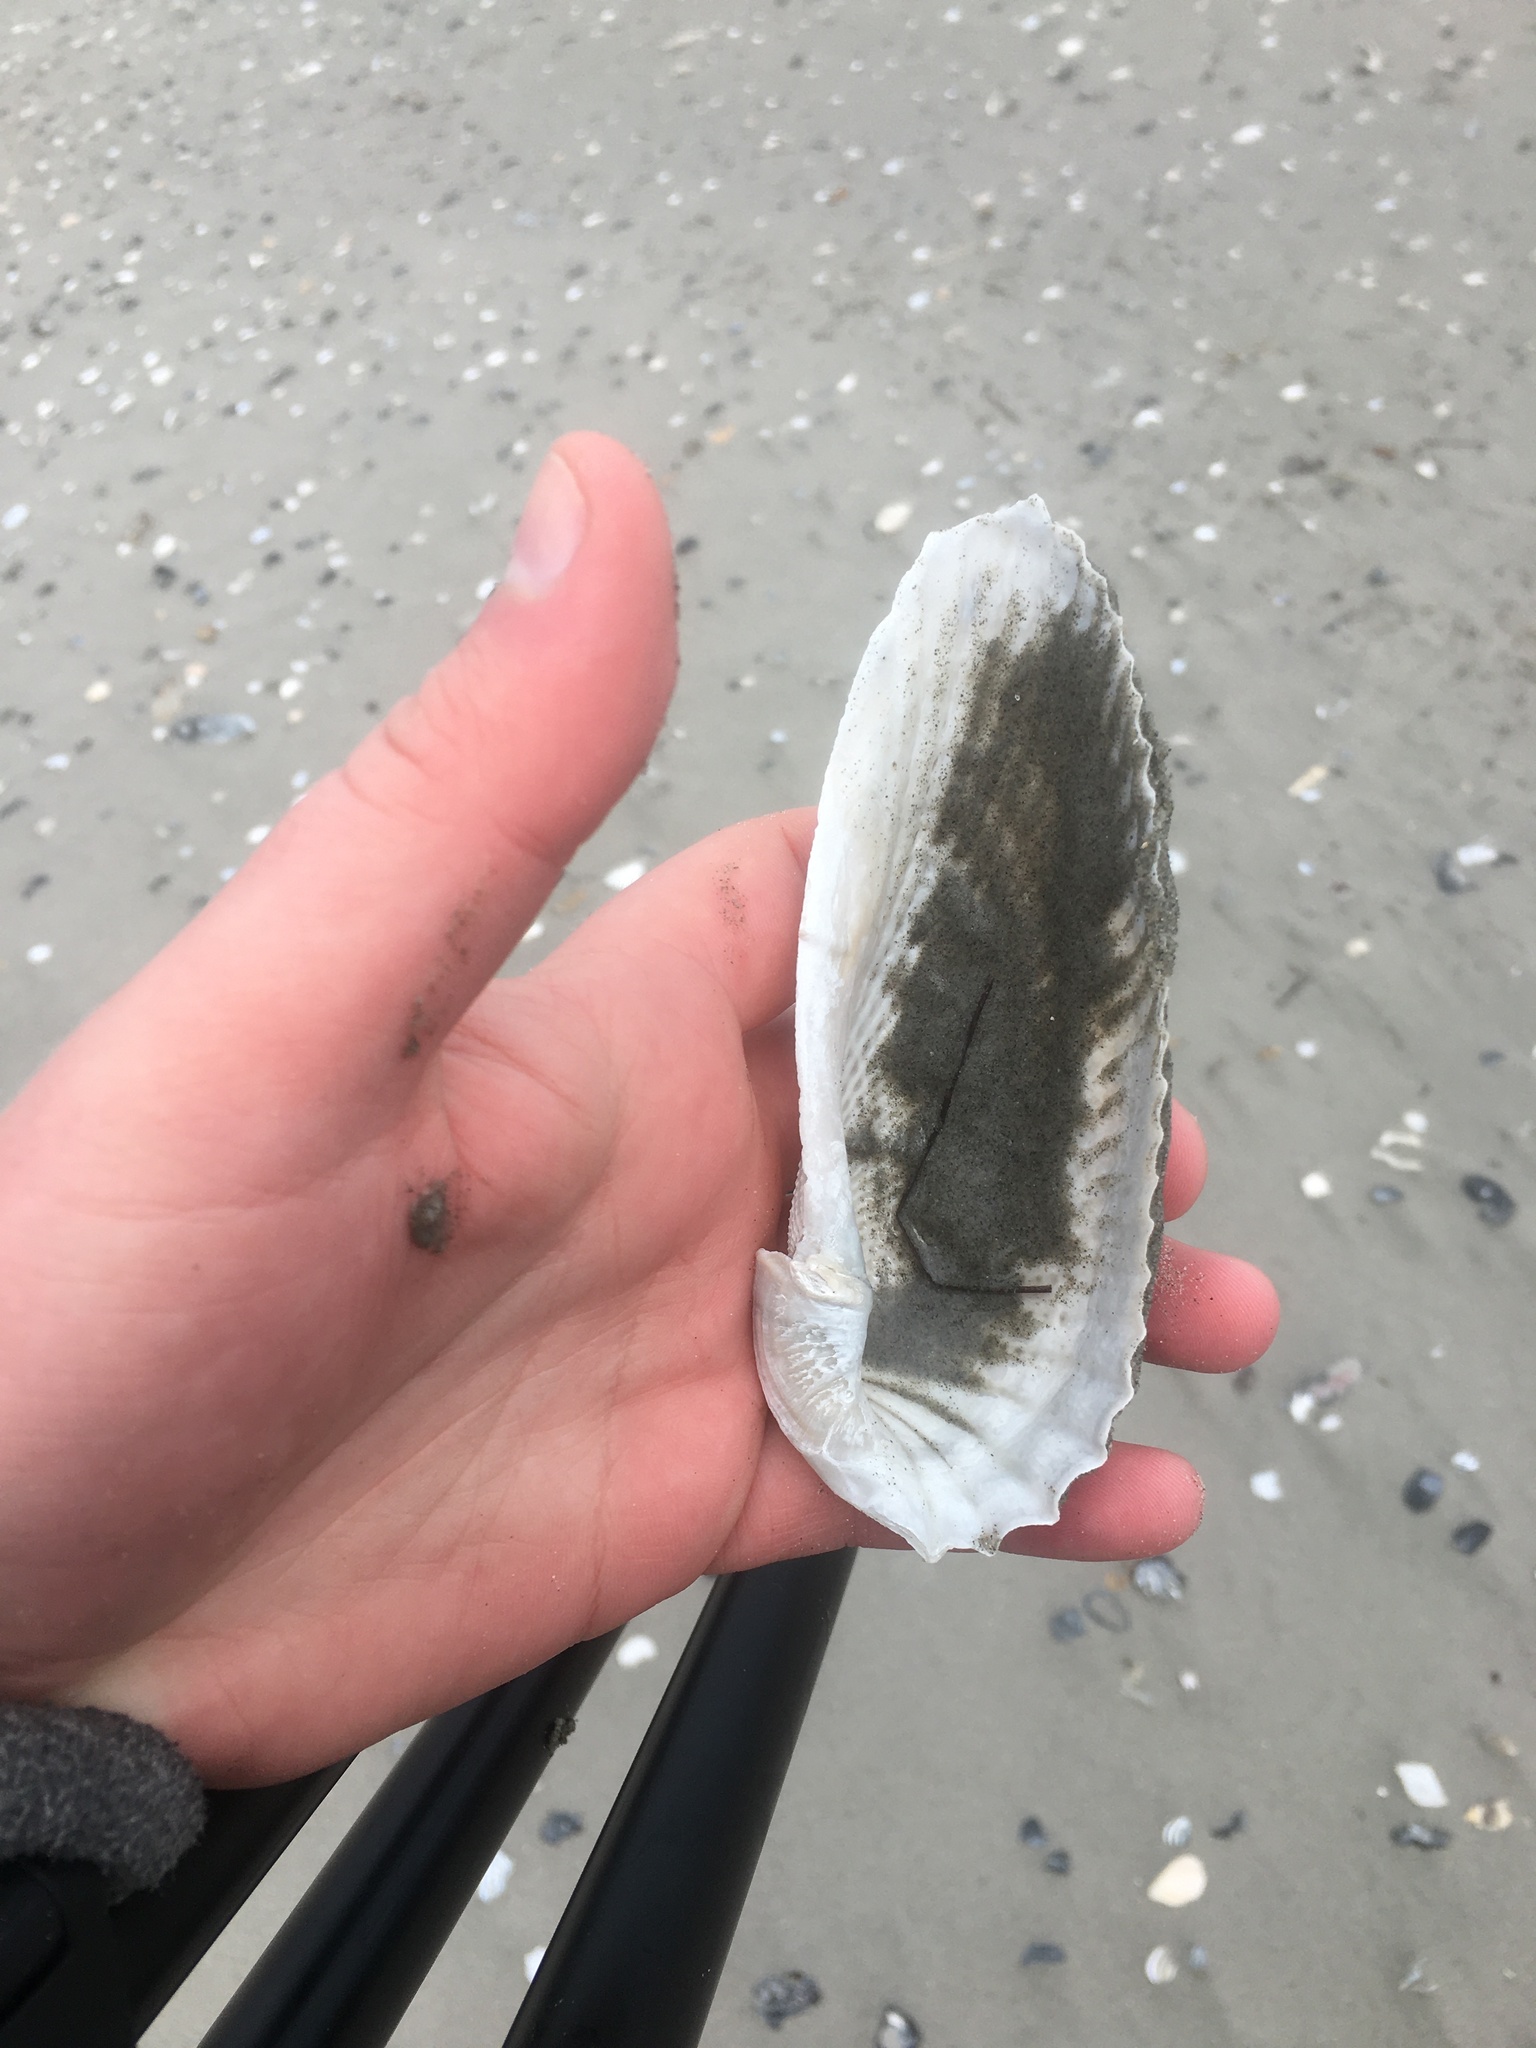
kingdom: Animalia
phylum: Mollusca
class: Bivalvia
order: Myida
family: Pholadidae
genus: Cyrtopleura
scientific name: Cyrtopleura costata
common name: Angel wing
